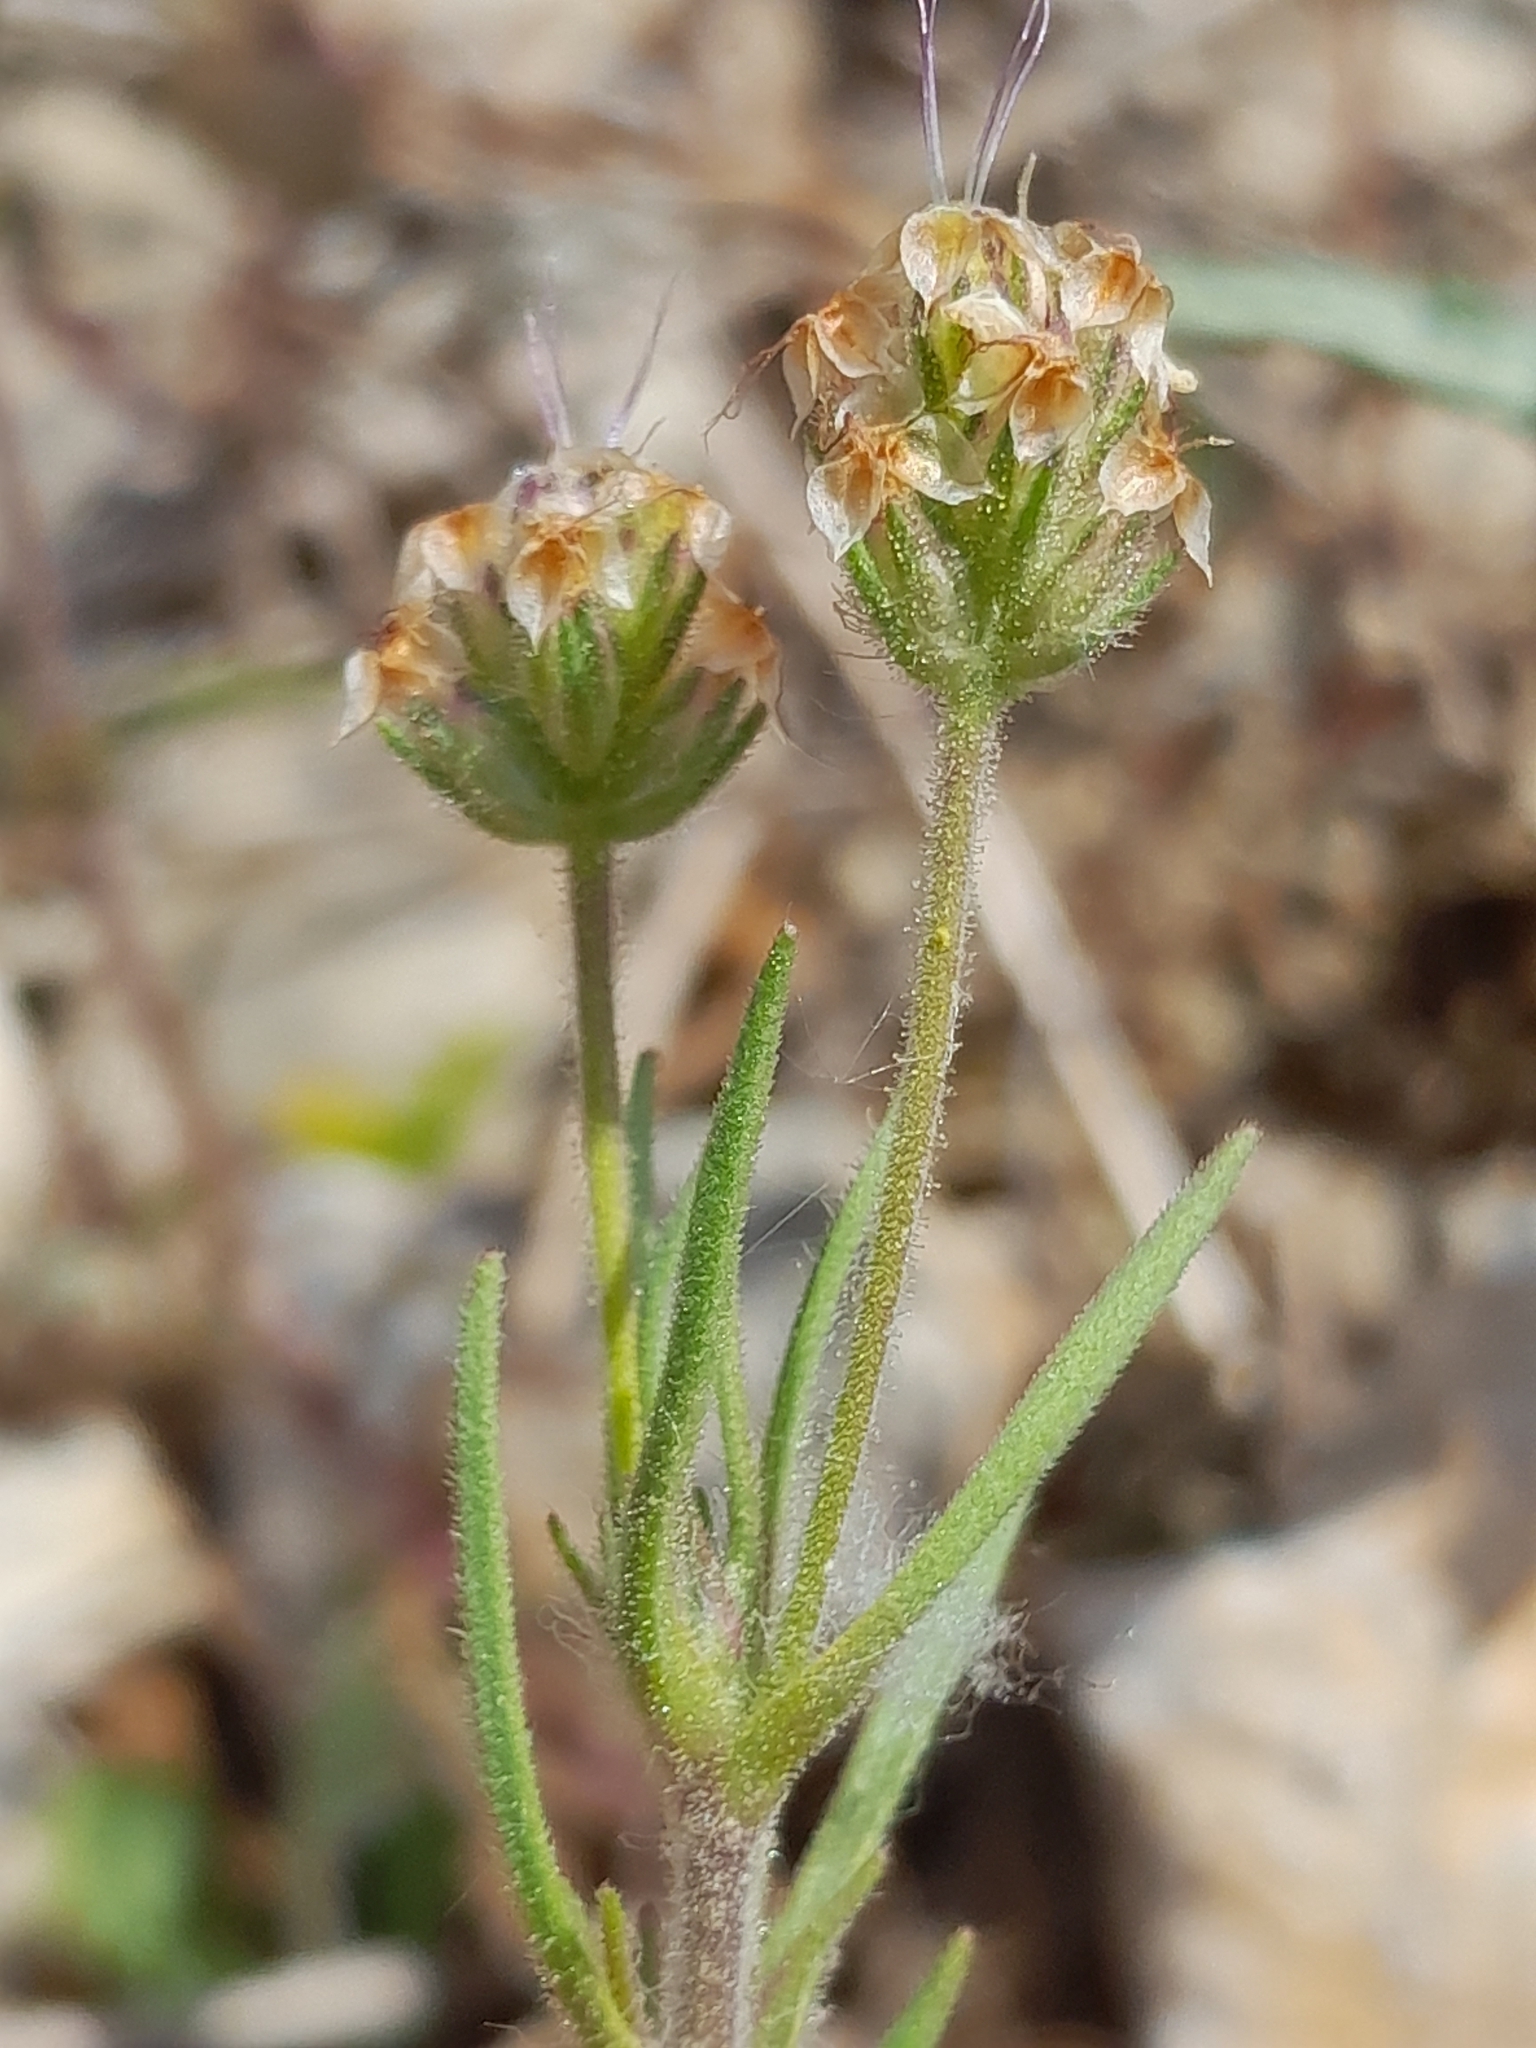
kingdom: Plantae
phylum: Tracheophyta
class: Magnoliopsida
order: Lamiales
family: Plantaginaceae
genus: Plantago
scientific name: Plantago afra
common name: Glandular plantain
